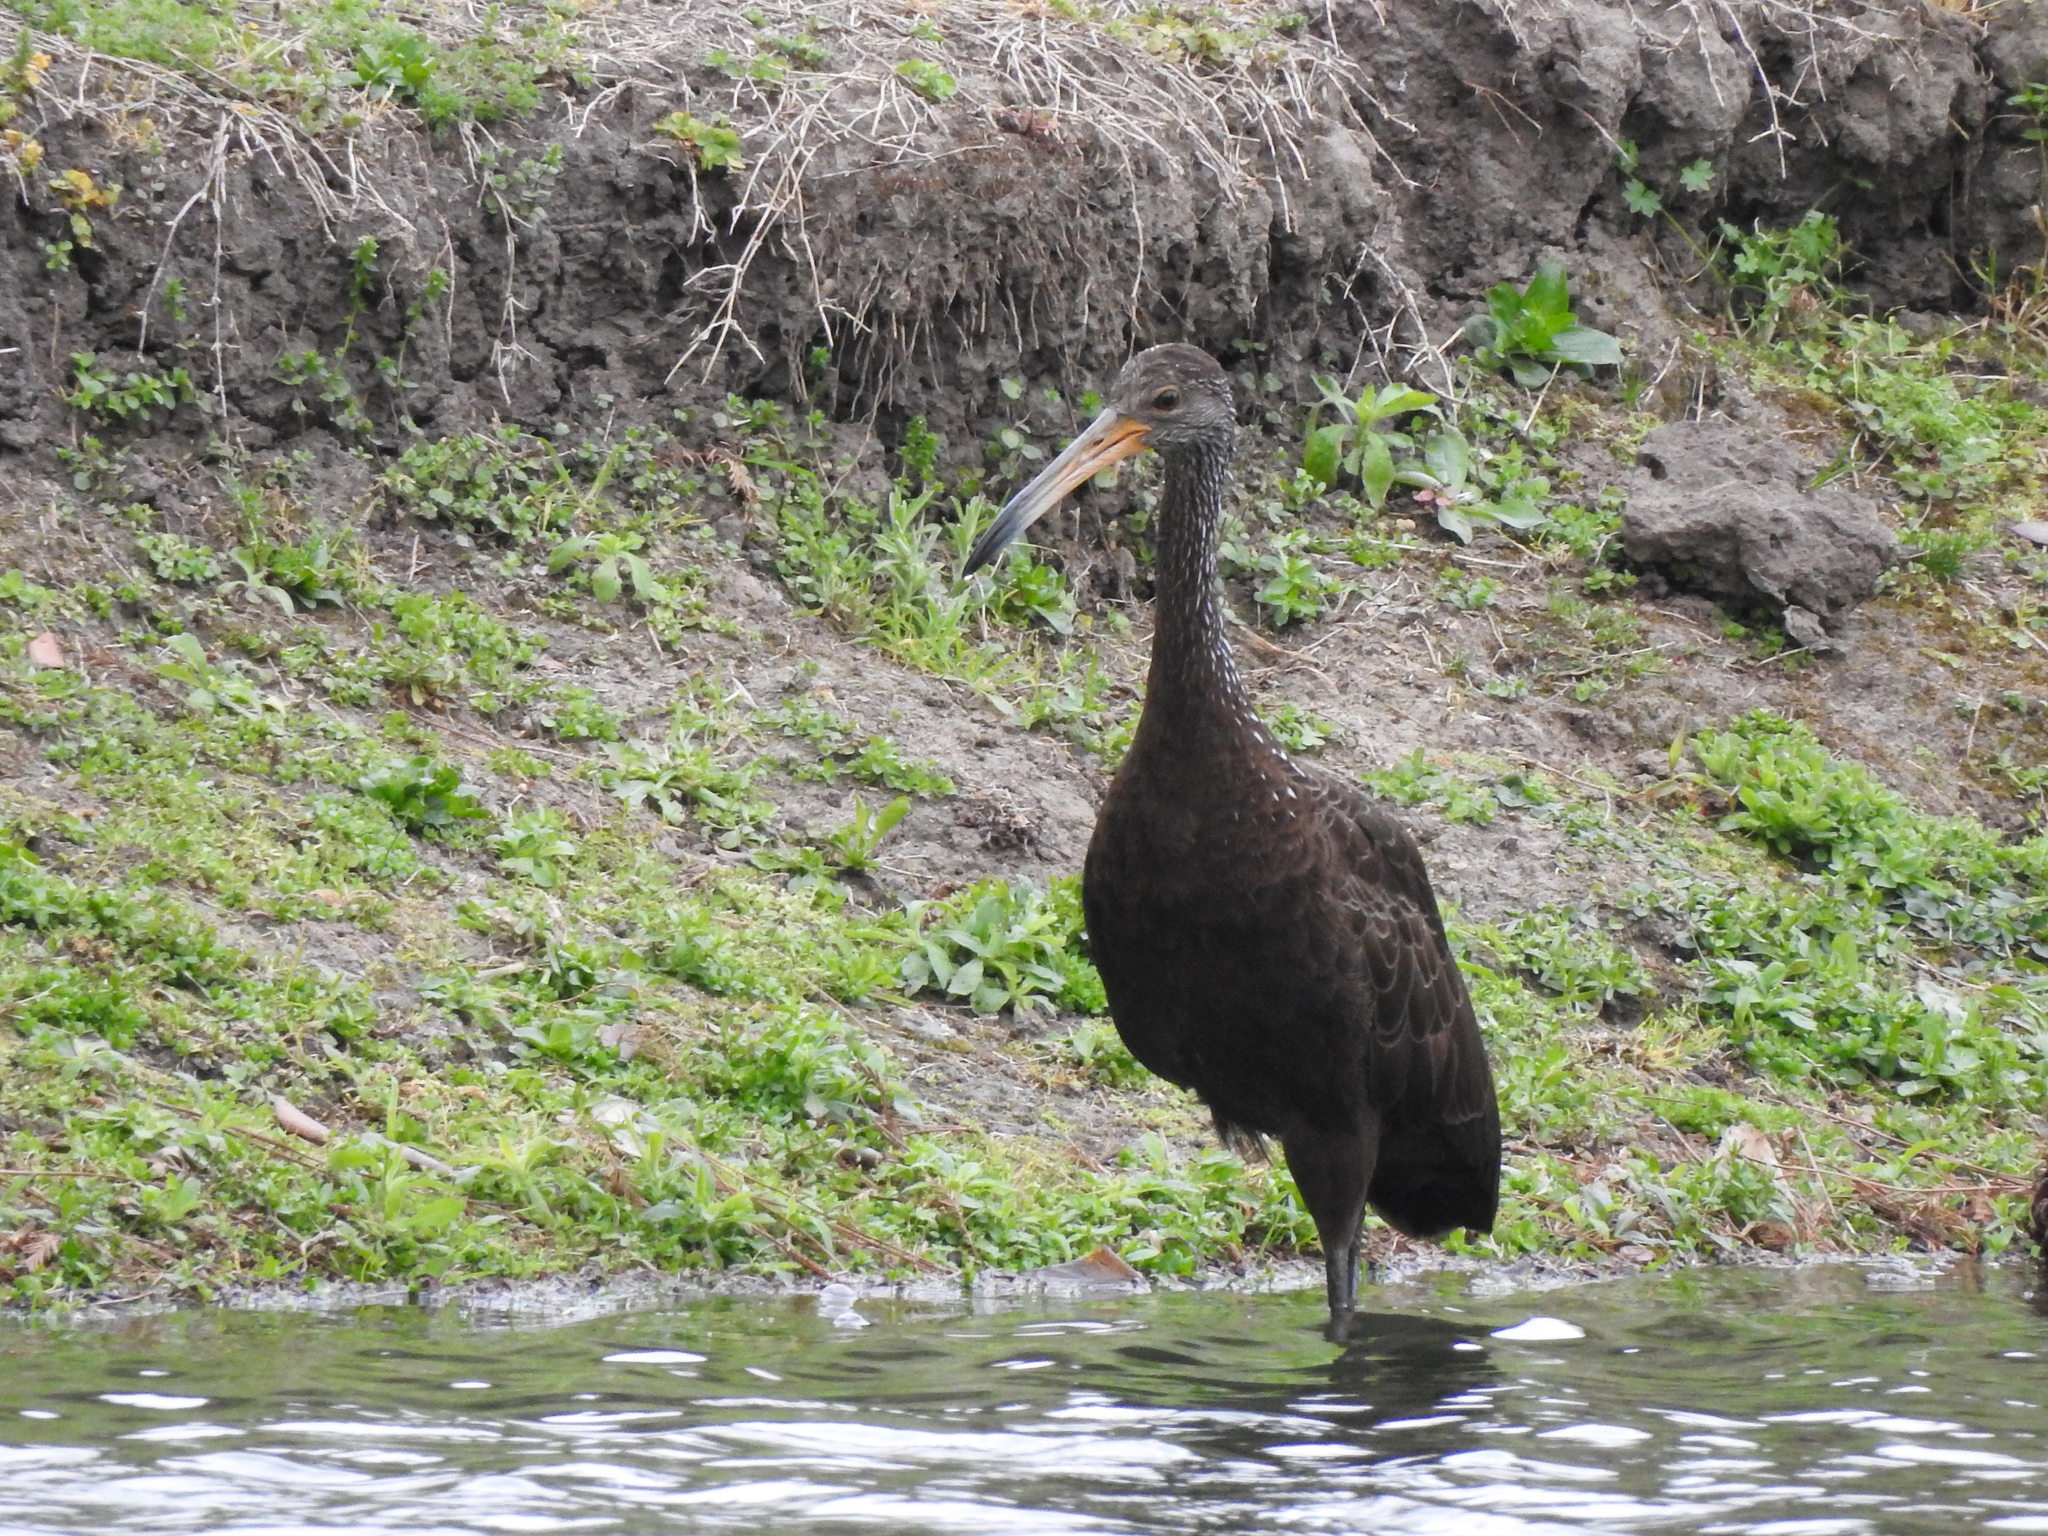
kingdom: Animalia
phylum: Chordata
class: Aves
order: Gruiformes
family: Aramidae
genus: Aramus
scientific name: Aramus guarauna
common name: Limpkin
